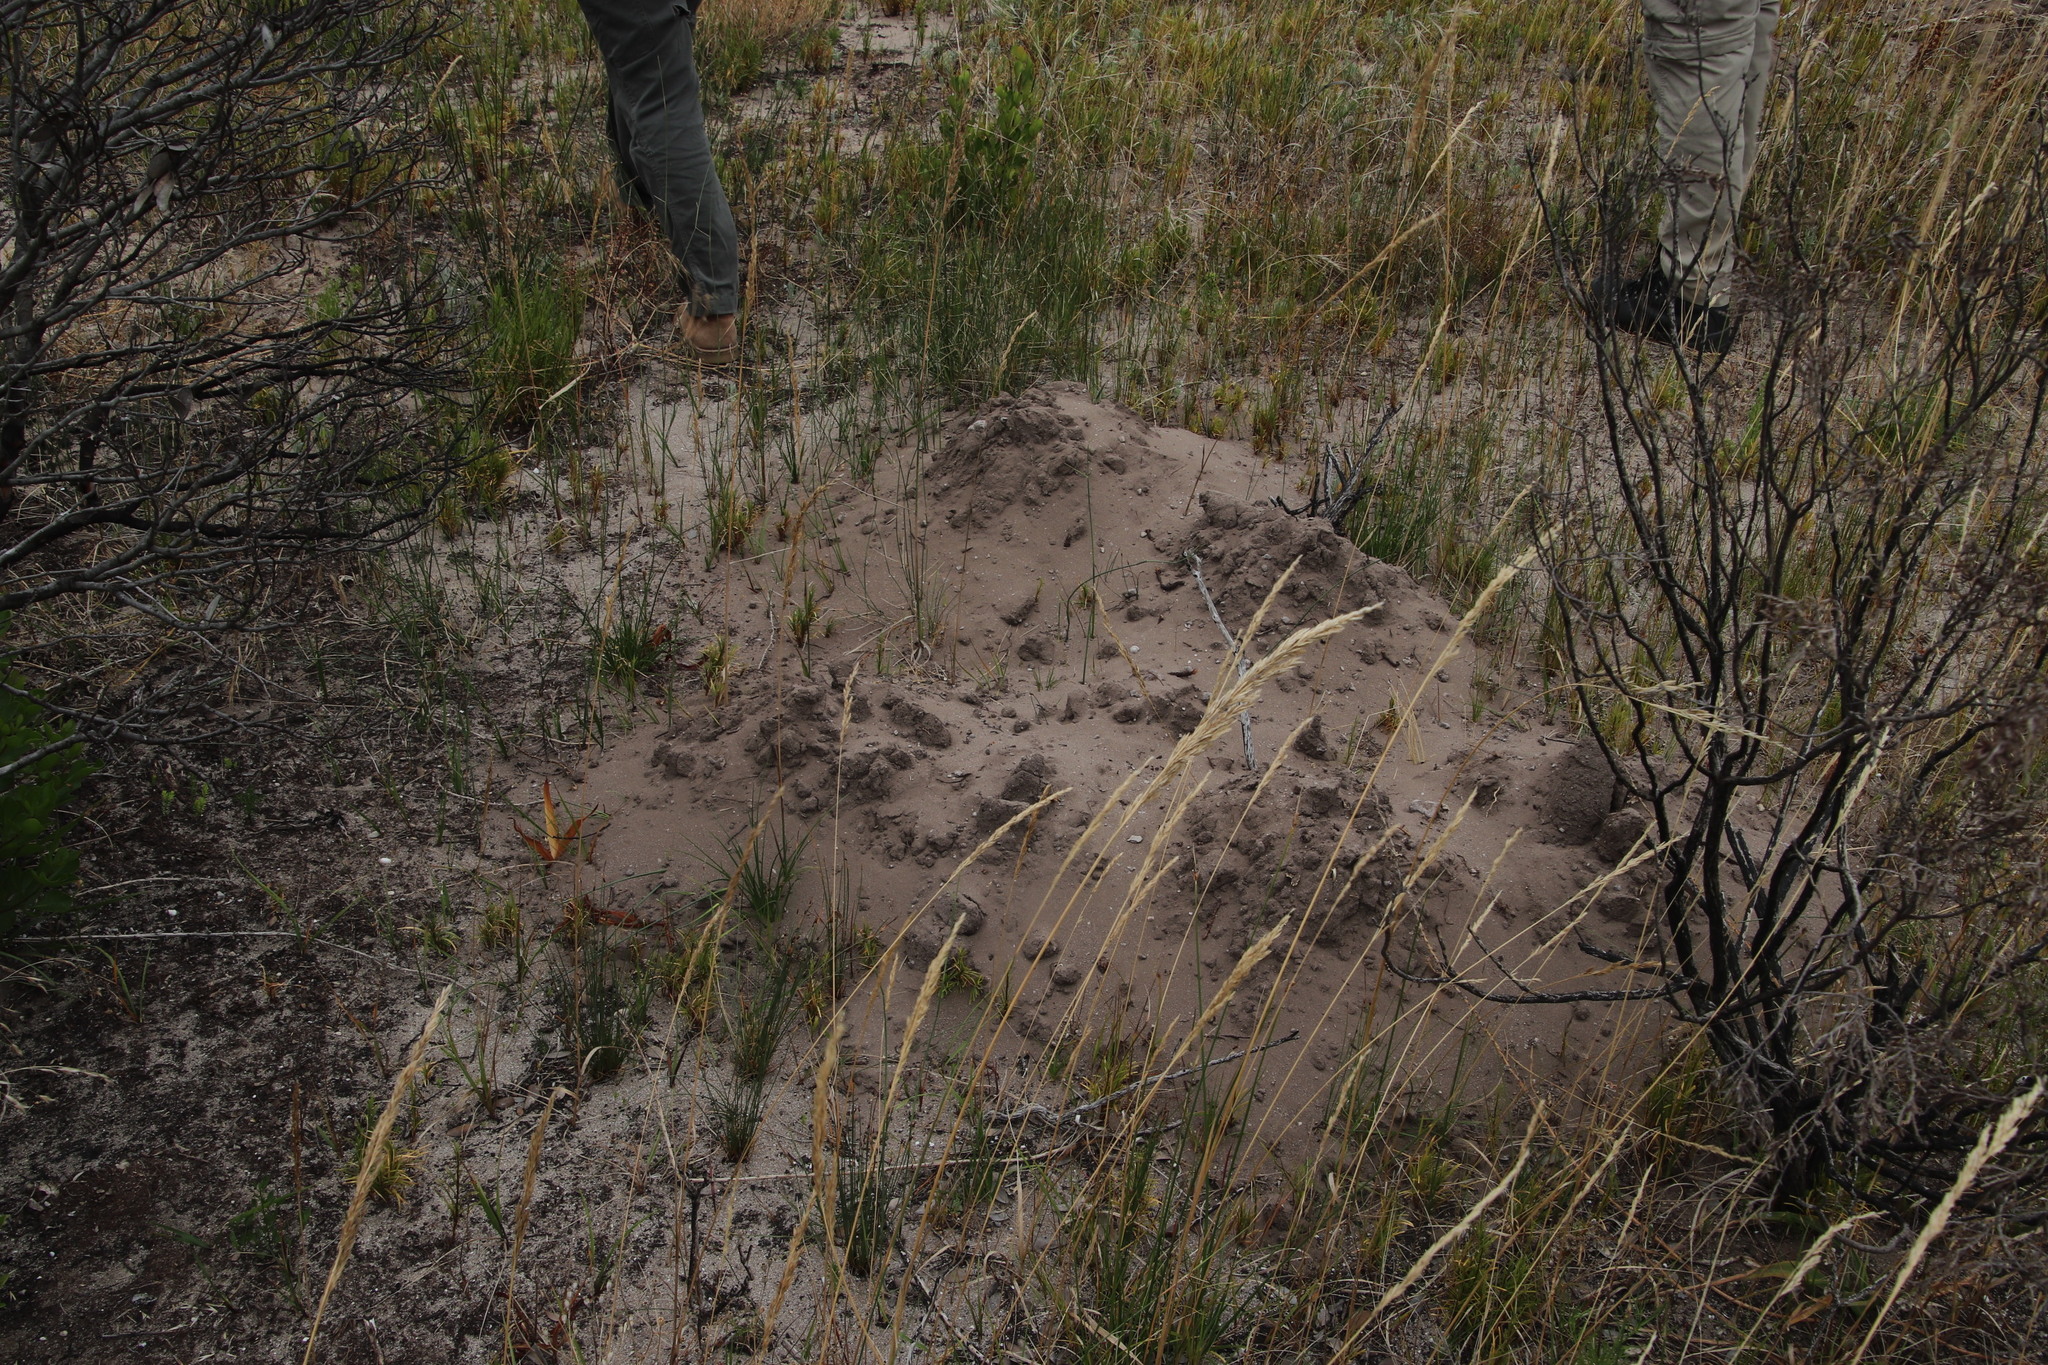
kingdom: Animalia
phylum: Chordata
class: Mammalia
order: Rodentia
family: Bathyergidae
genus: Bathyergus
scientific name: Bathyergus suillus
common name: Cape dune mole rat
